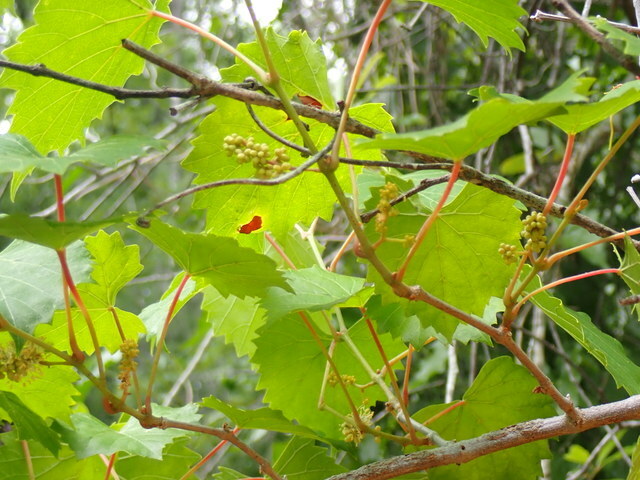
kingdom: Plantae
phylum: Tracheophyta
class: Magnoliopsida
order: Vitales
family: Vitaceae
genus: Vitis
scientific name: Vitis rotundifolia
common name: Muscadine grape
